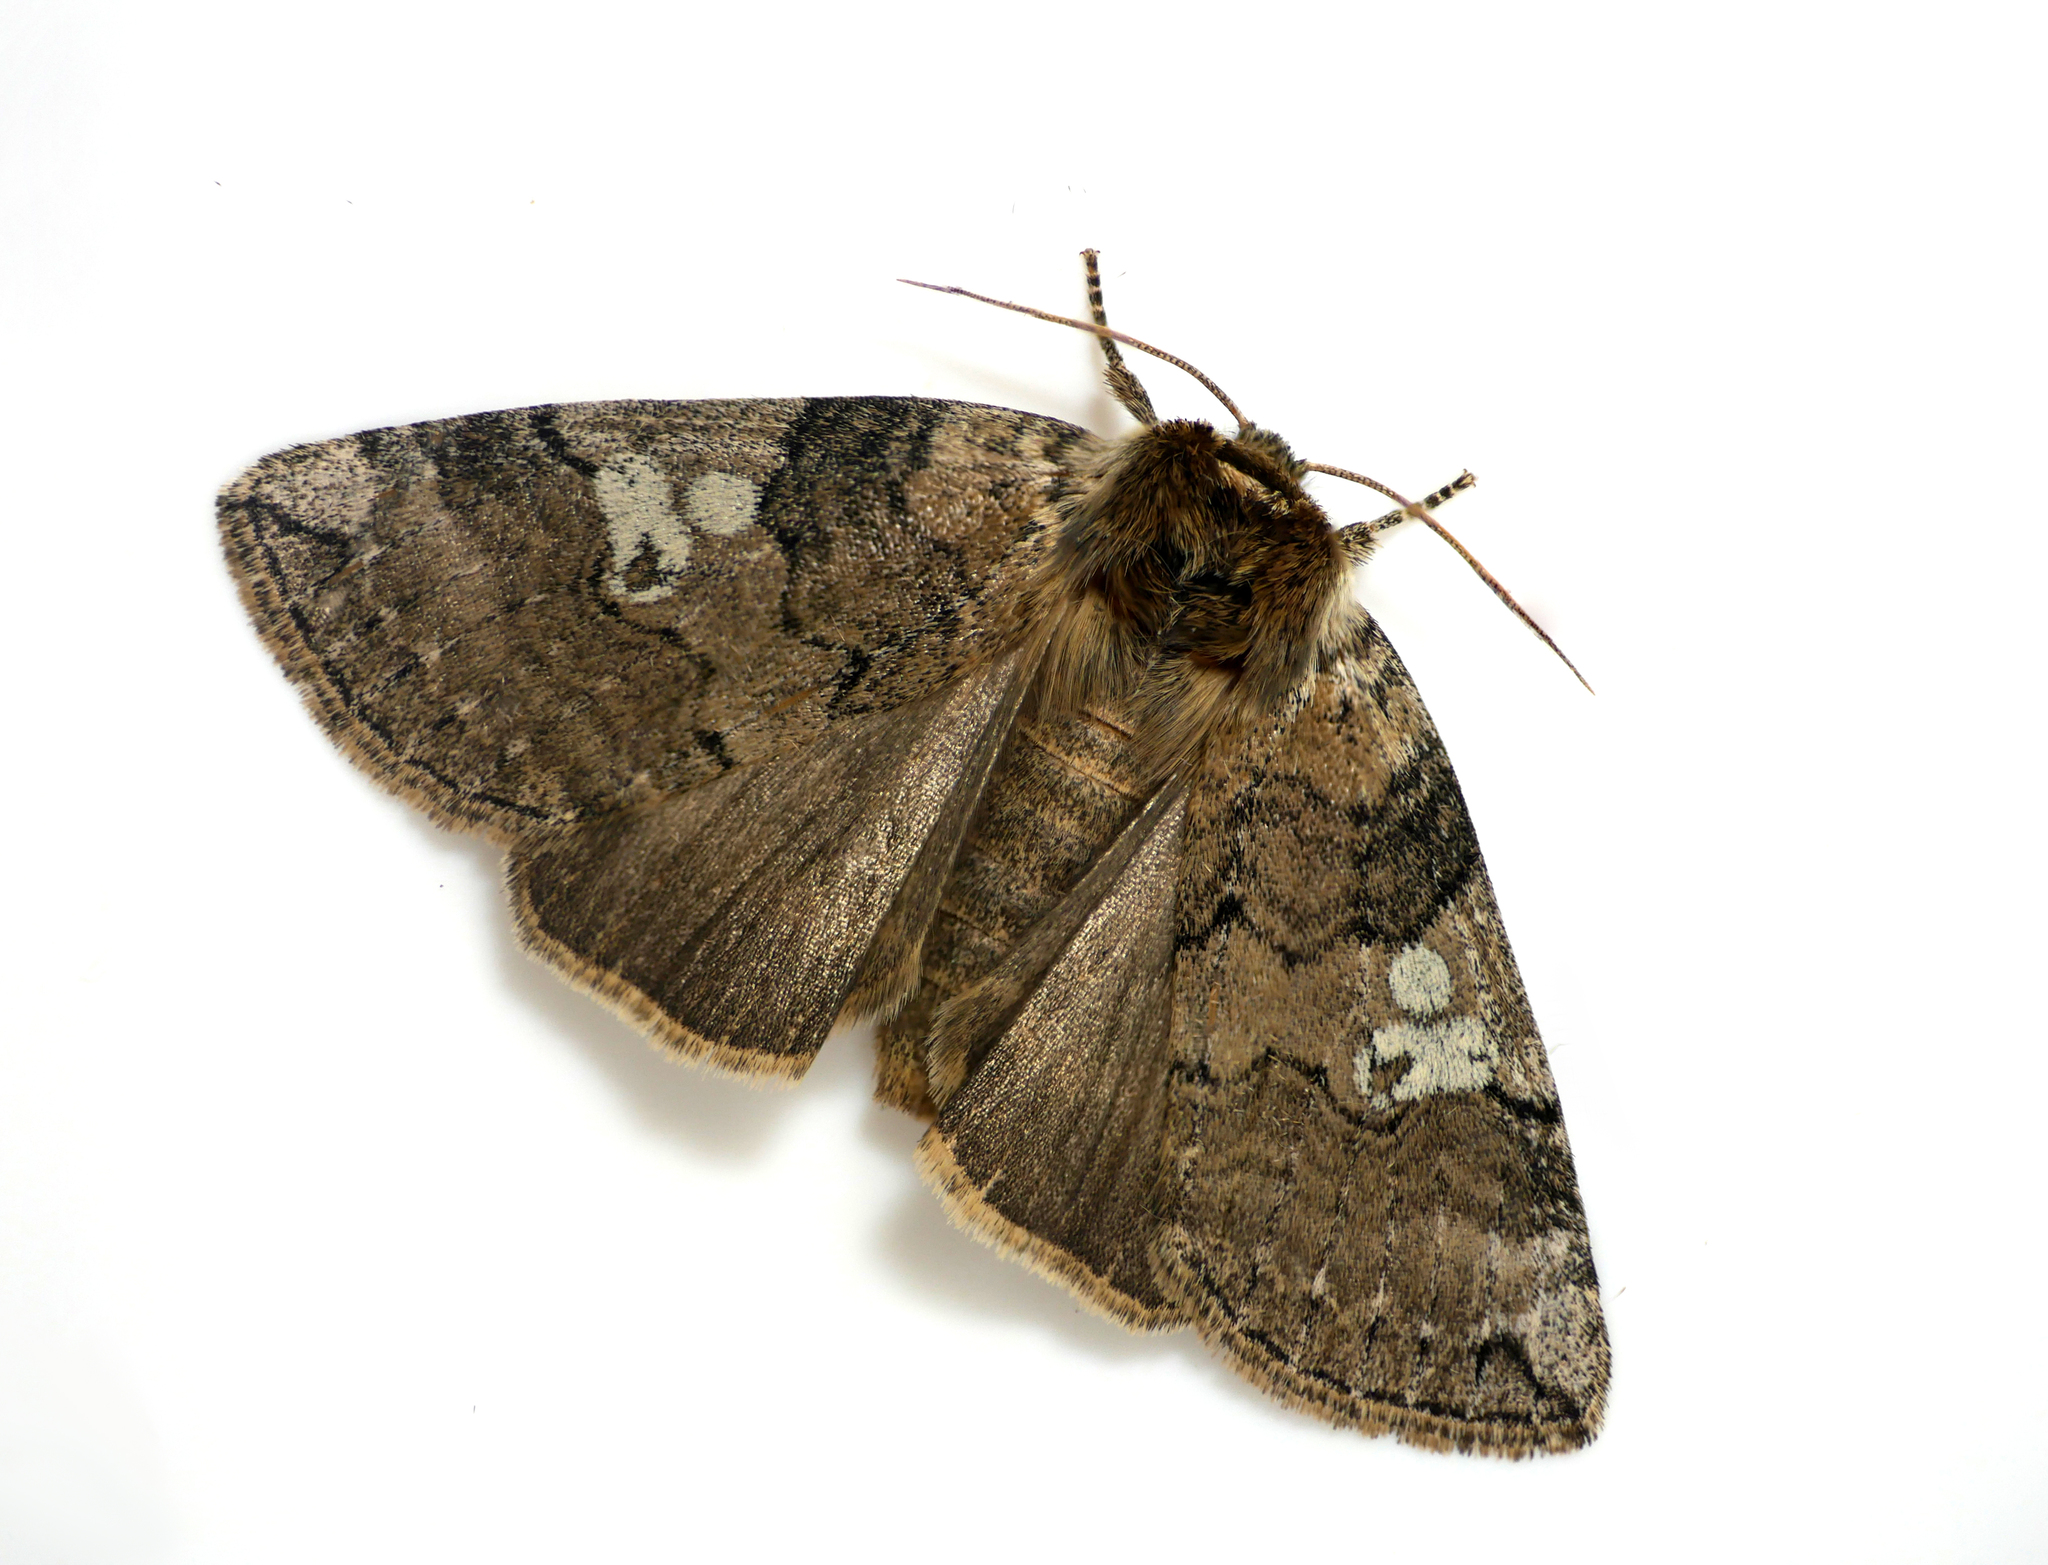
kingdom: Animalia
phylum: Arthropoda
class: Insecta
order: Lepidoptera
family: Drepanidae
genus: Tethea
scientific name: Tethea or
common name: Poplar lutestring
